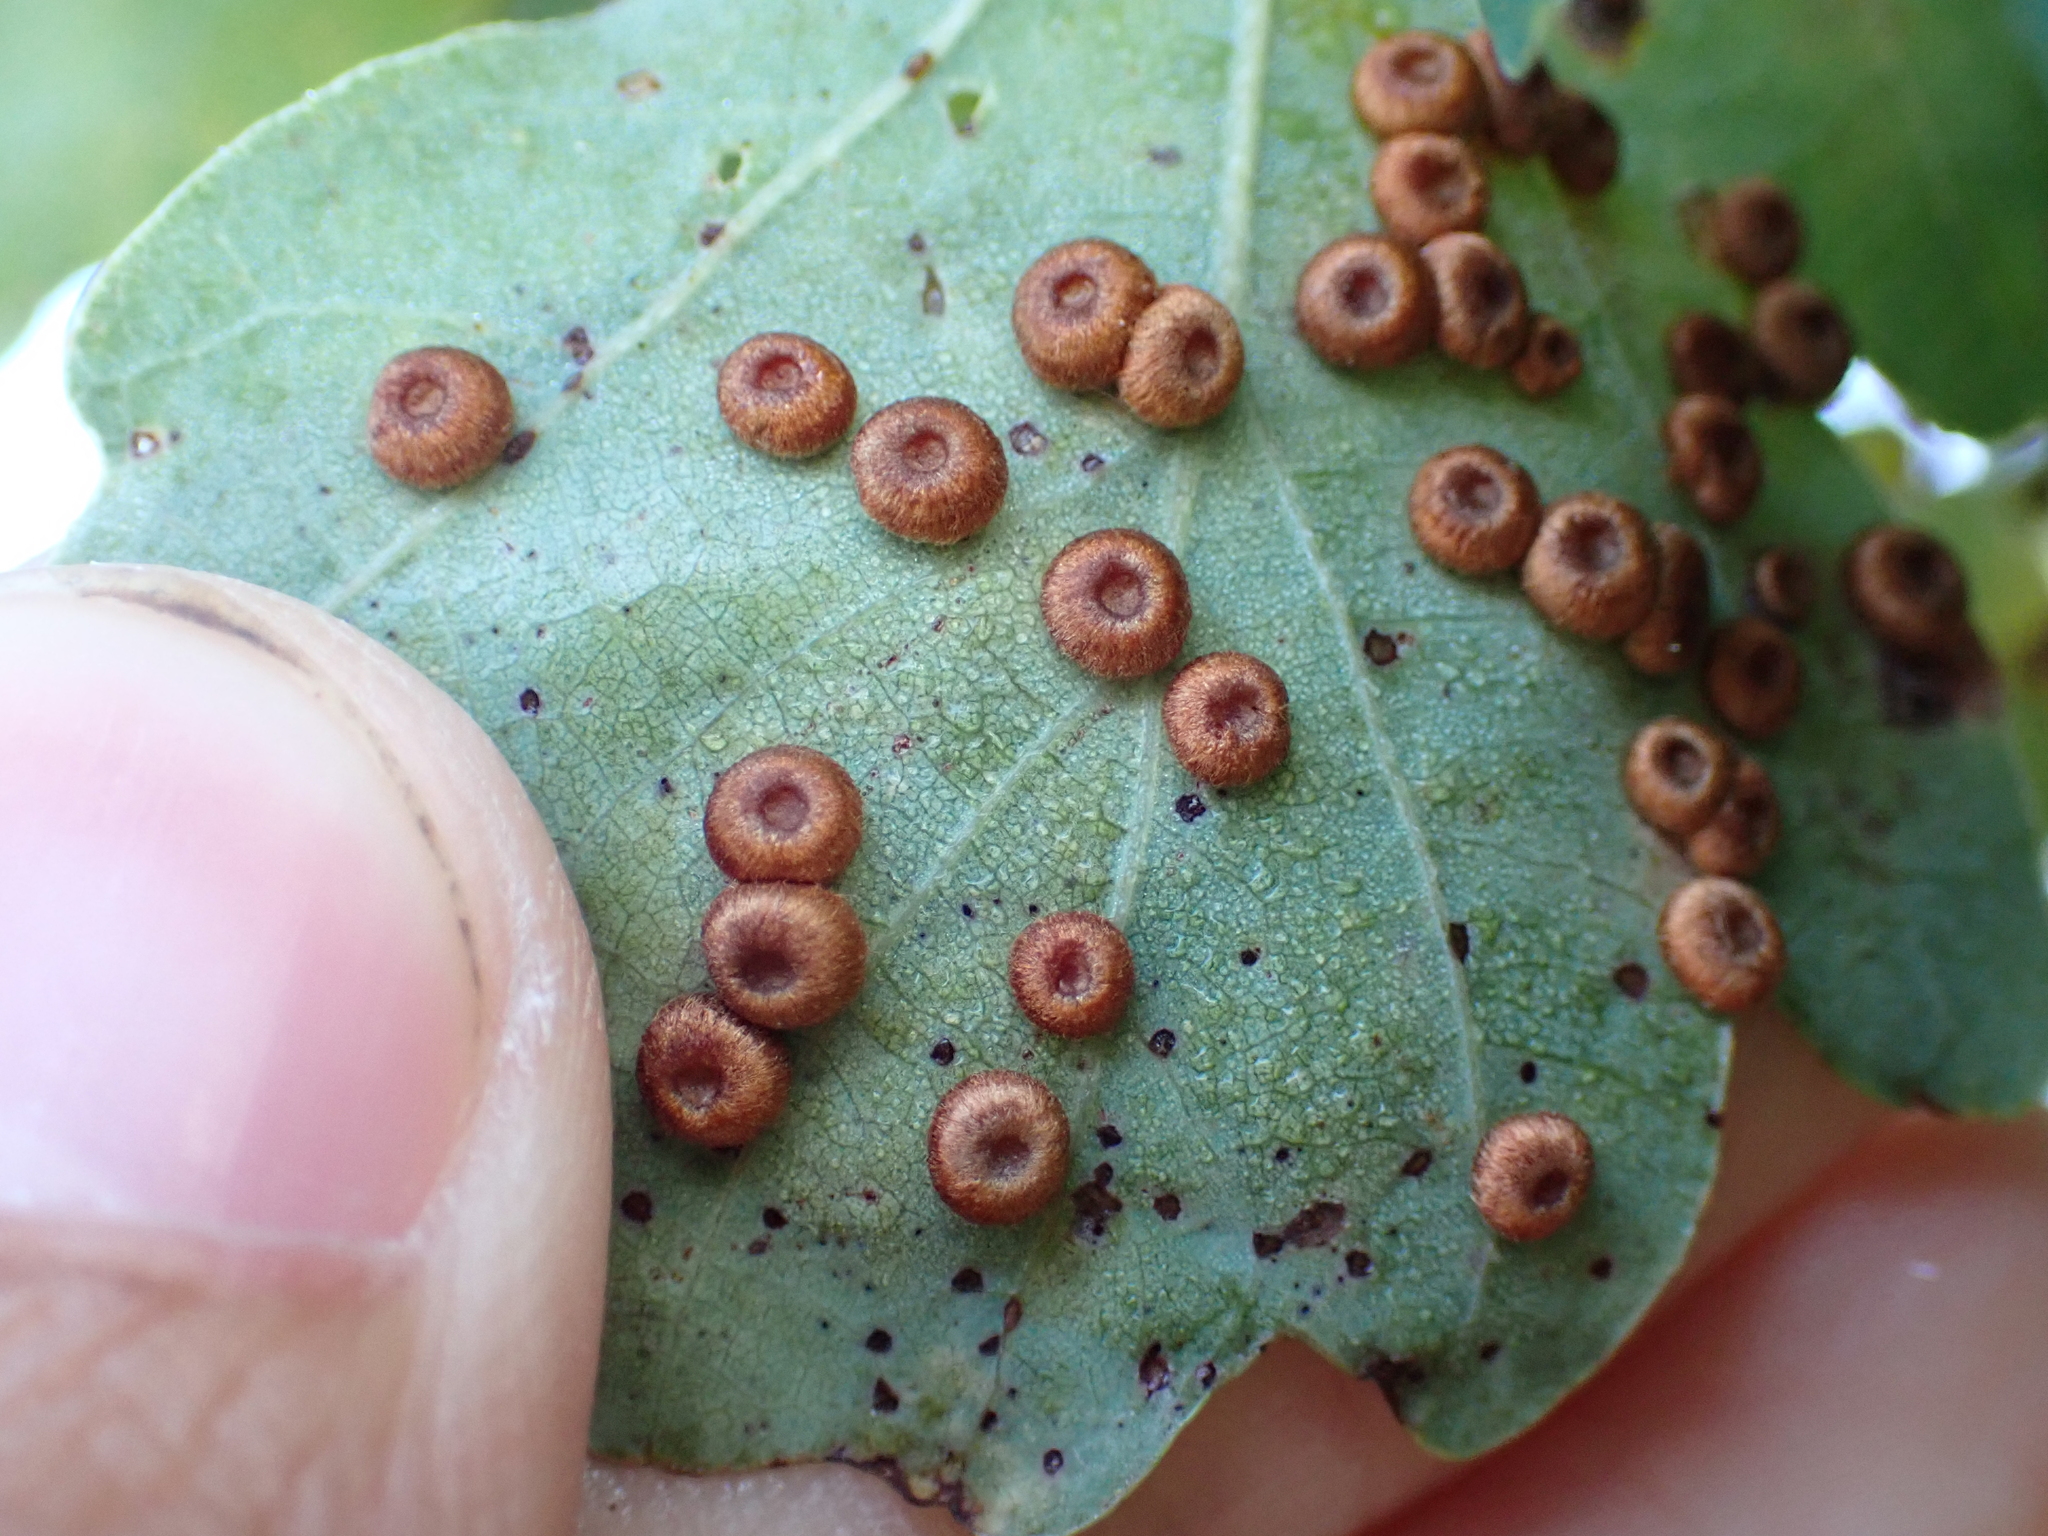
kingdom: Animalia
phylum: Arthropoda
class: Insecta
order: Hymenoptera
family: Cynipidae
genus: Neuroterus
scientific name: Neuroterus numismalis
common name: Silk-button spangle gall
